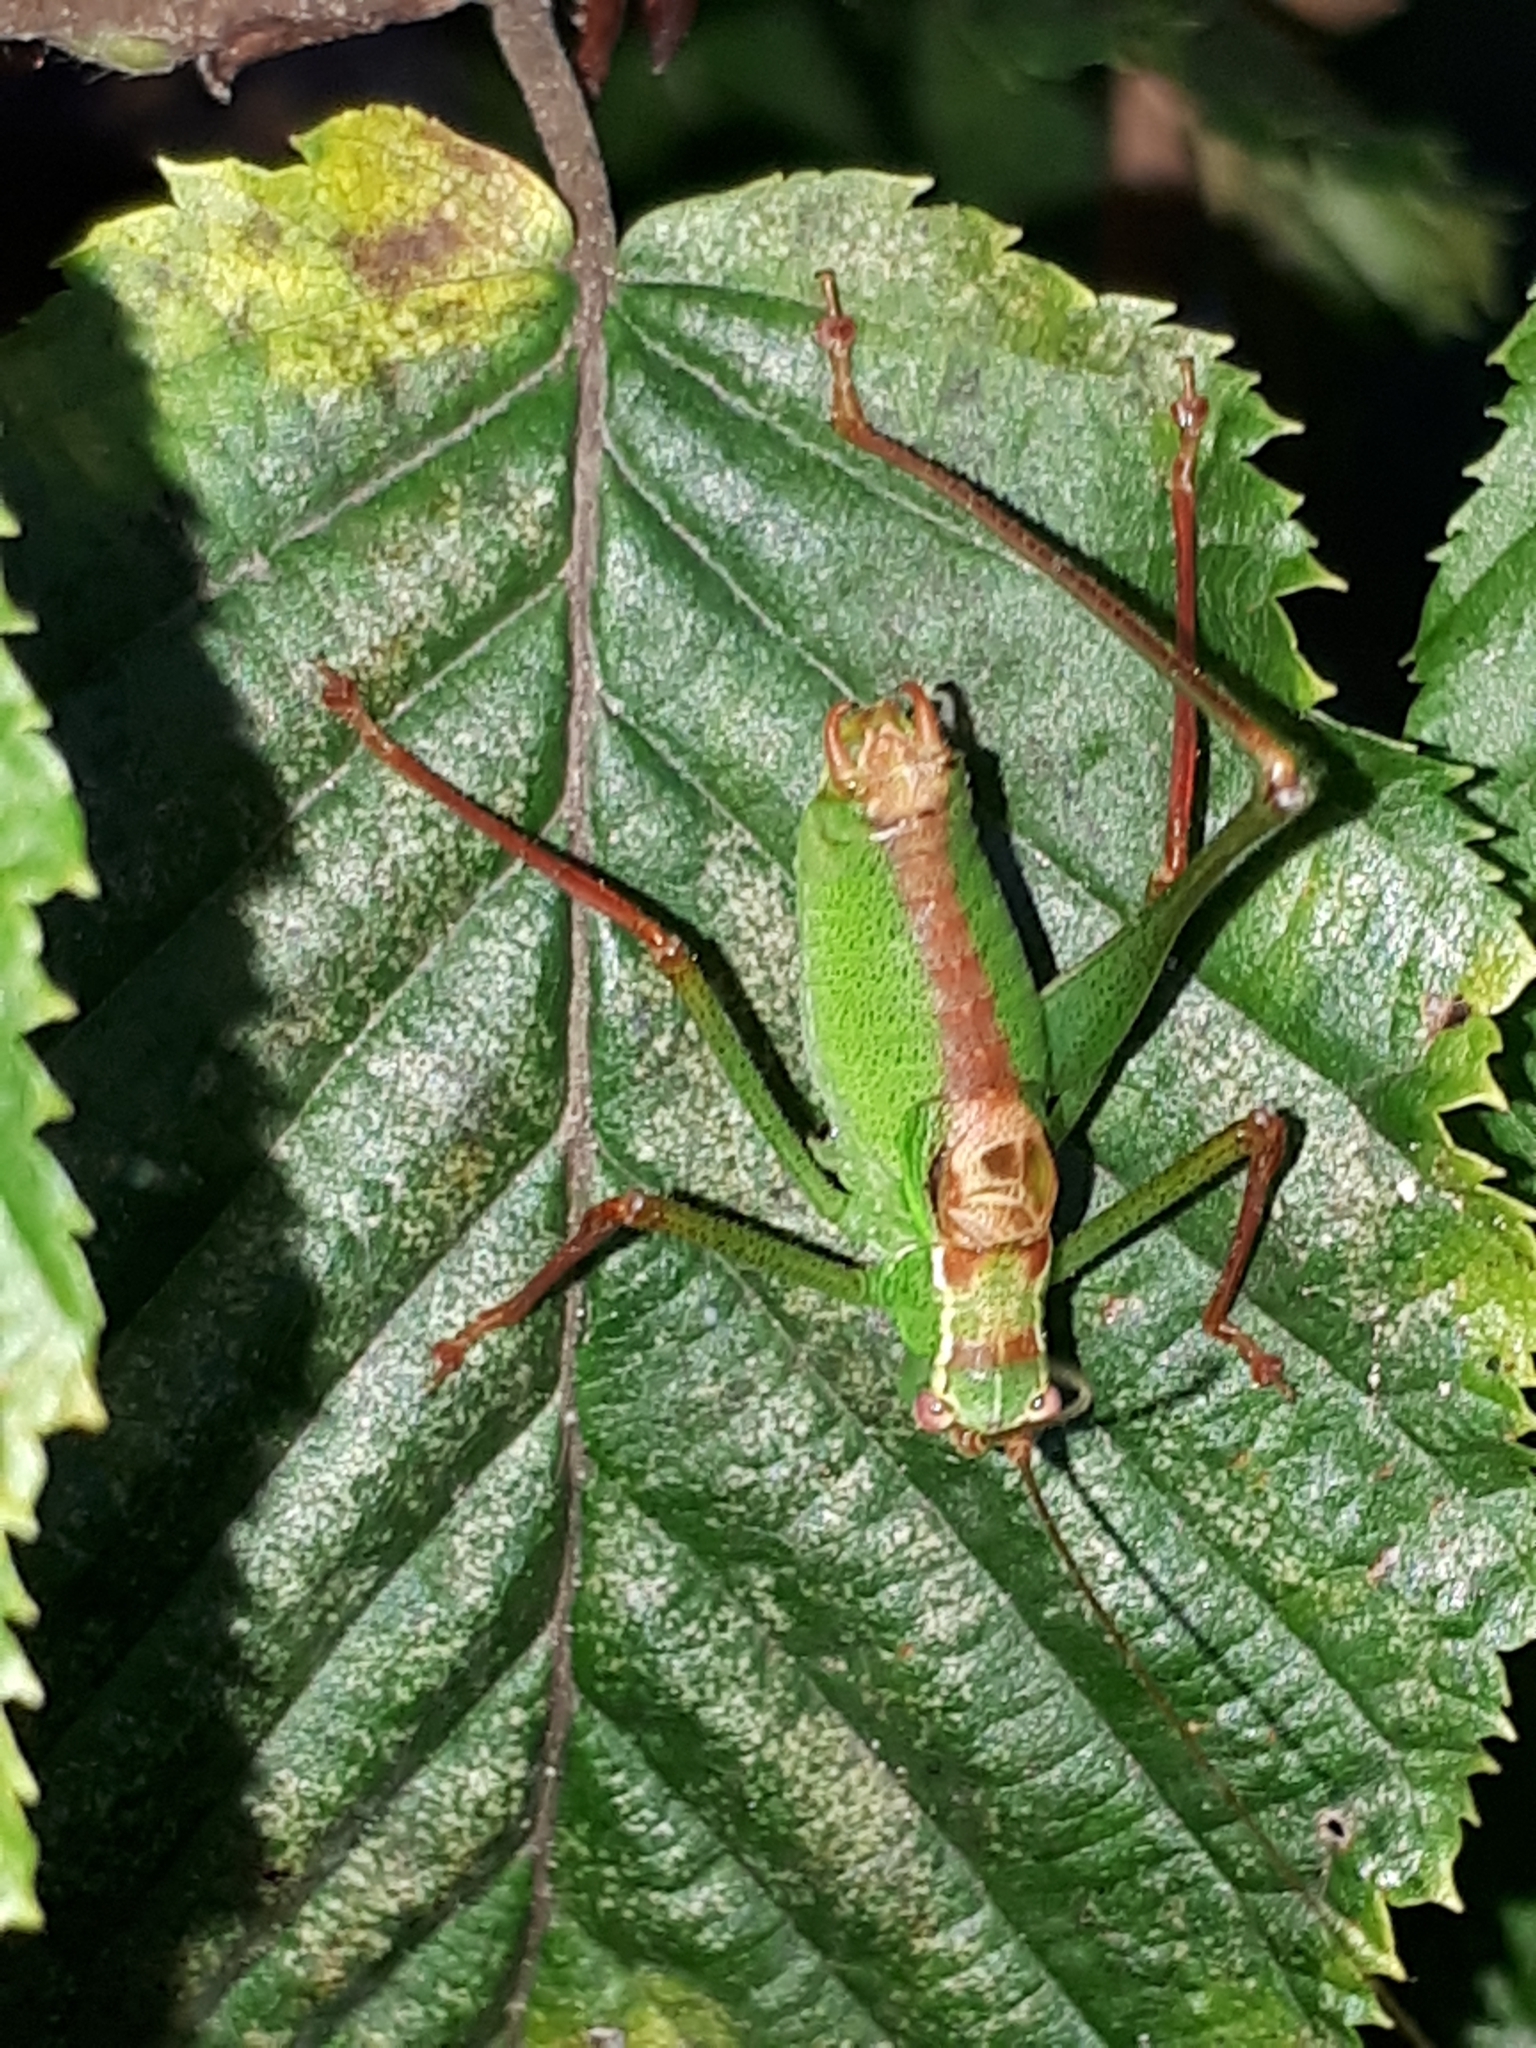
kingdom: Animalia
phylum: Arthropoda
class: Insecta
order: Orthoptera
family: Tettigoniidae
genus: Leptophyes
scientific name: Leptophyes punctatissima
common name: Speckled bush-cricket
